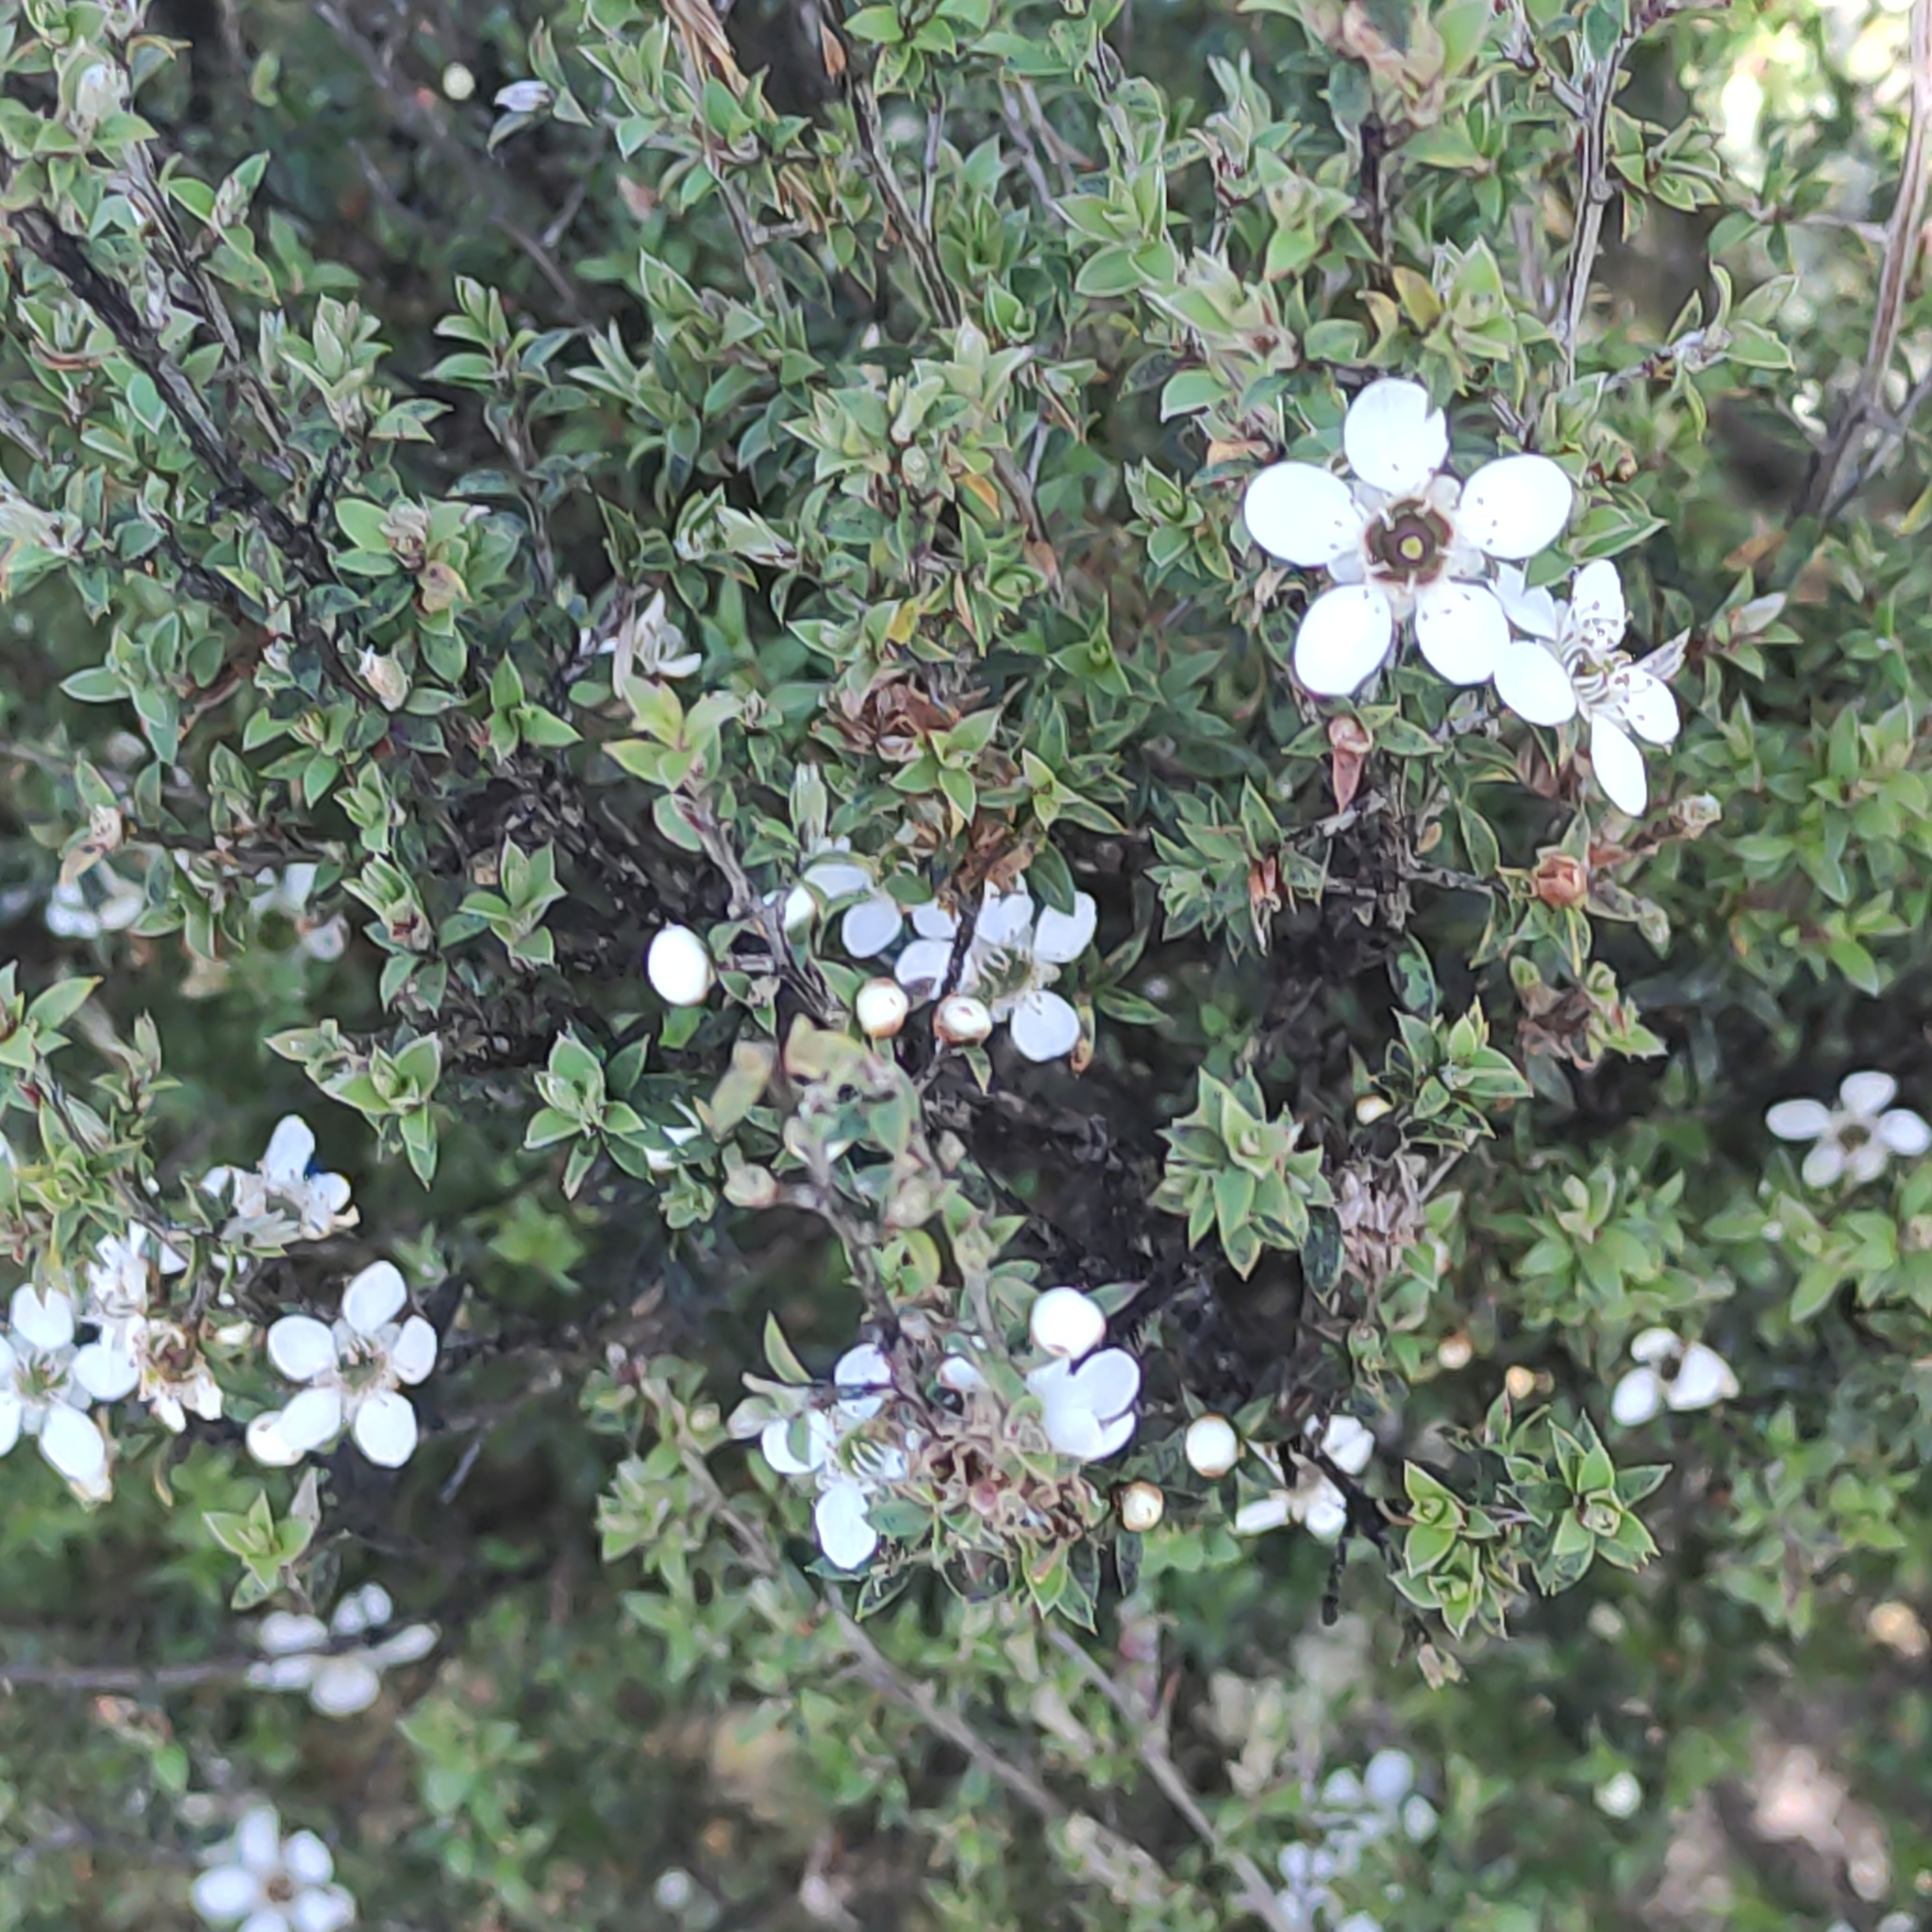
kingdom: Plantae
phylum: Tracheophyta
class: Magnoliopsida
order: Myrtales
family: Myrtaceae
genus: Leptospermum
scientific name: Leptospermum scoparium
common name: Broom tea-tree
